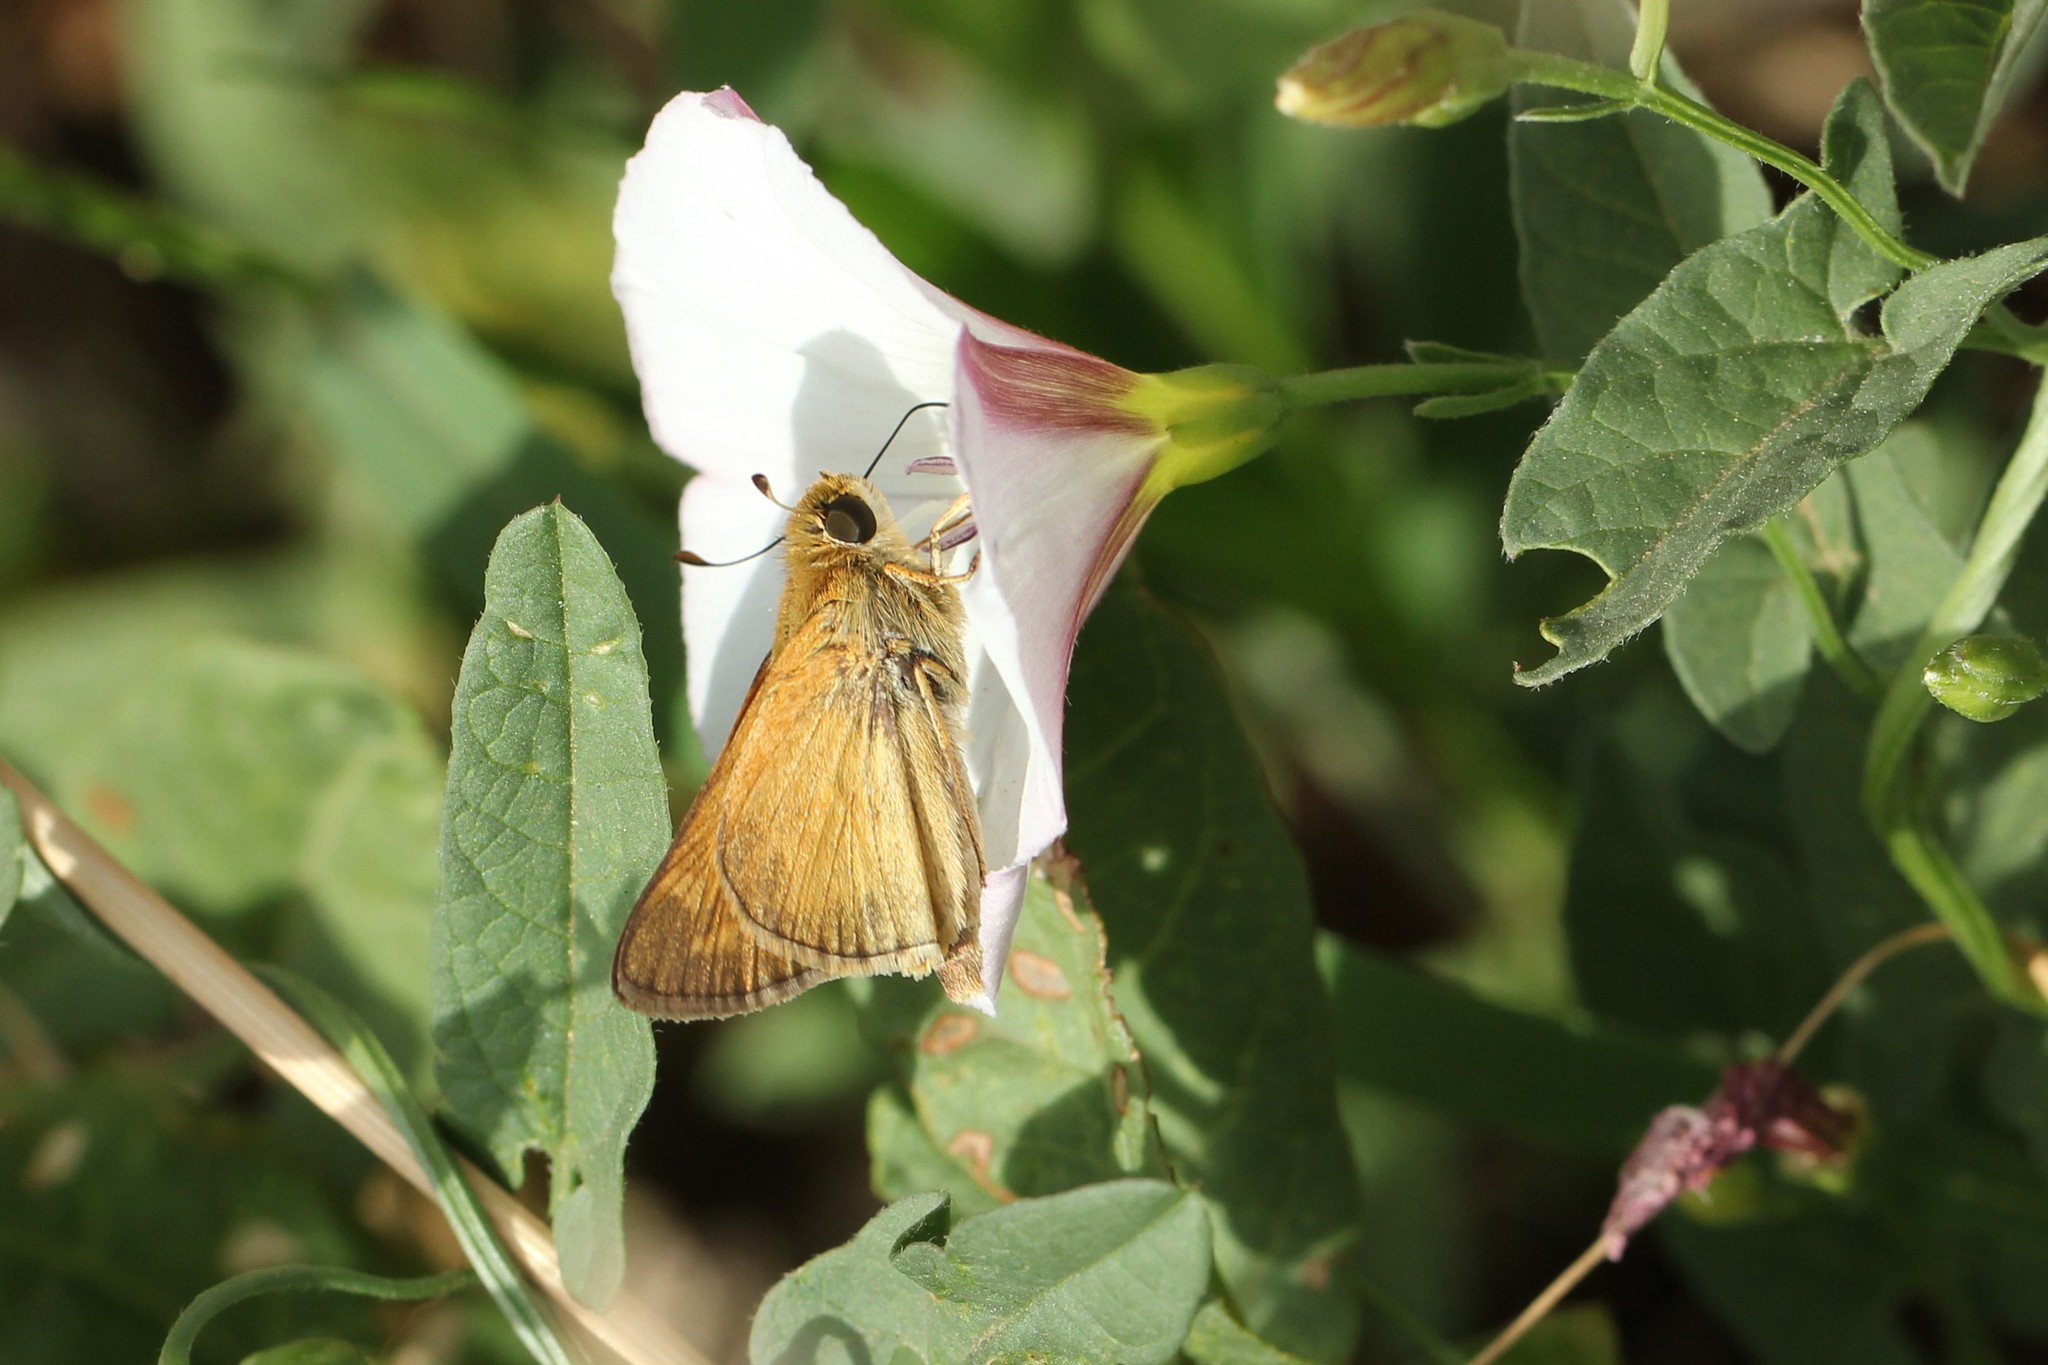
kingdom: Animalia
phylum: Arthropoda
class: Insecta
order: Lepidoptera
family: Hesperiidae
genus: Atalopedes
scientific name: Atalopedes
